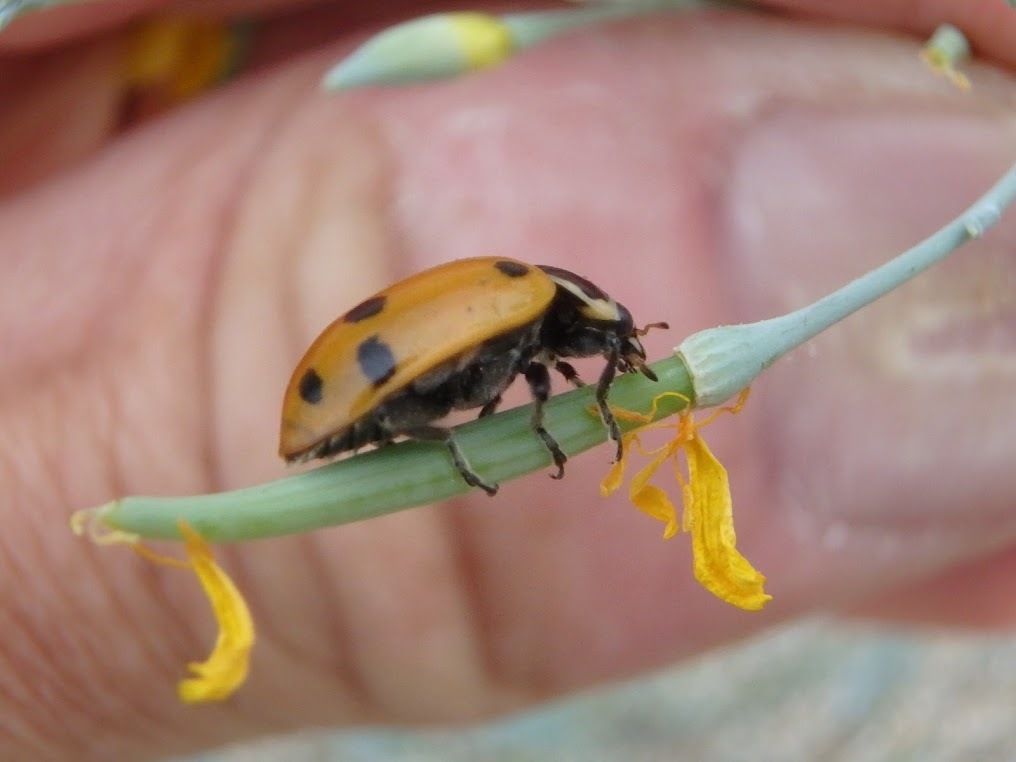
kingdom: Animalia
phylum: Arthropoda
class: Insecta
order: Coleoptera
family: Coccinellidae
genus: Hippodamia
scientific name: Hippodamia convergens
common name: Convergent lady beetle
